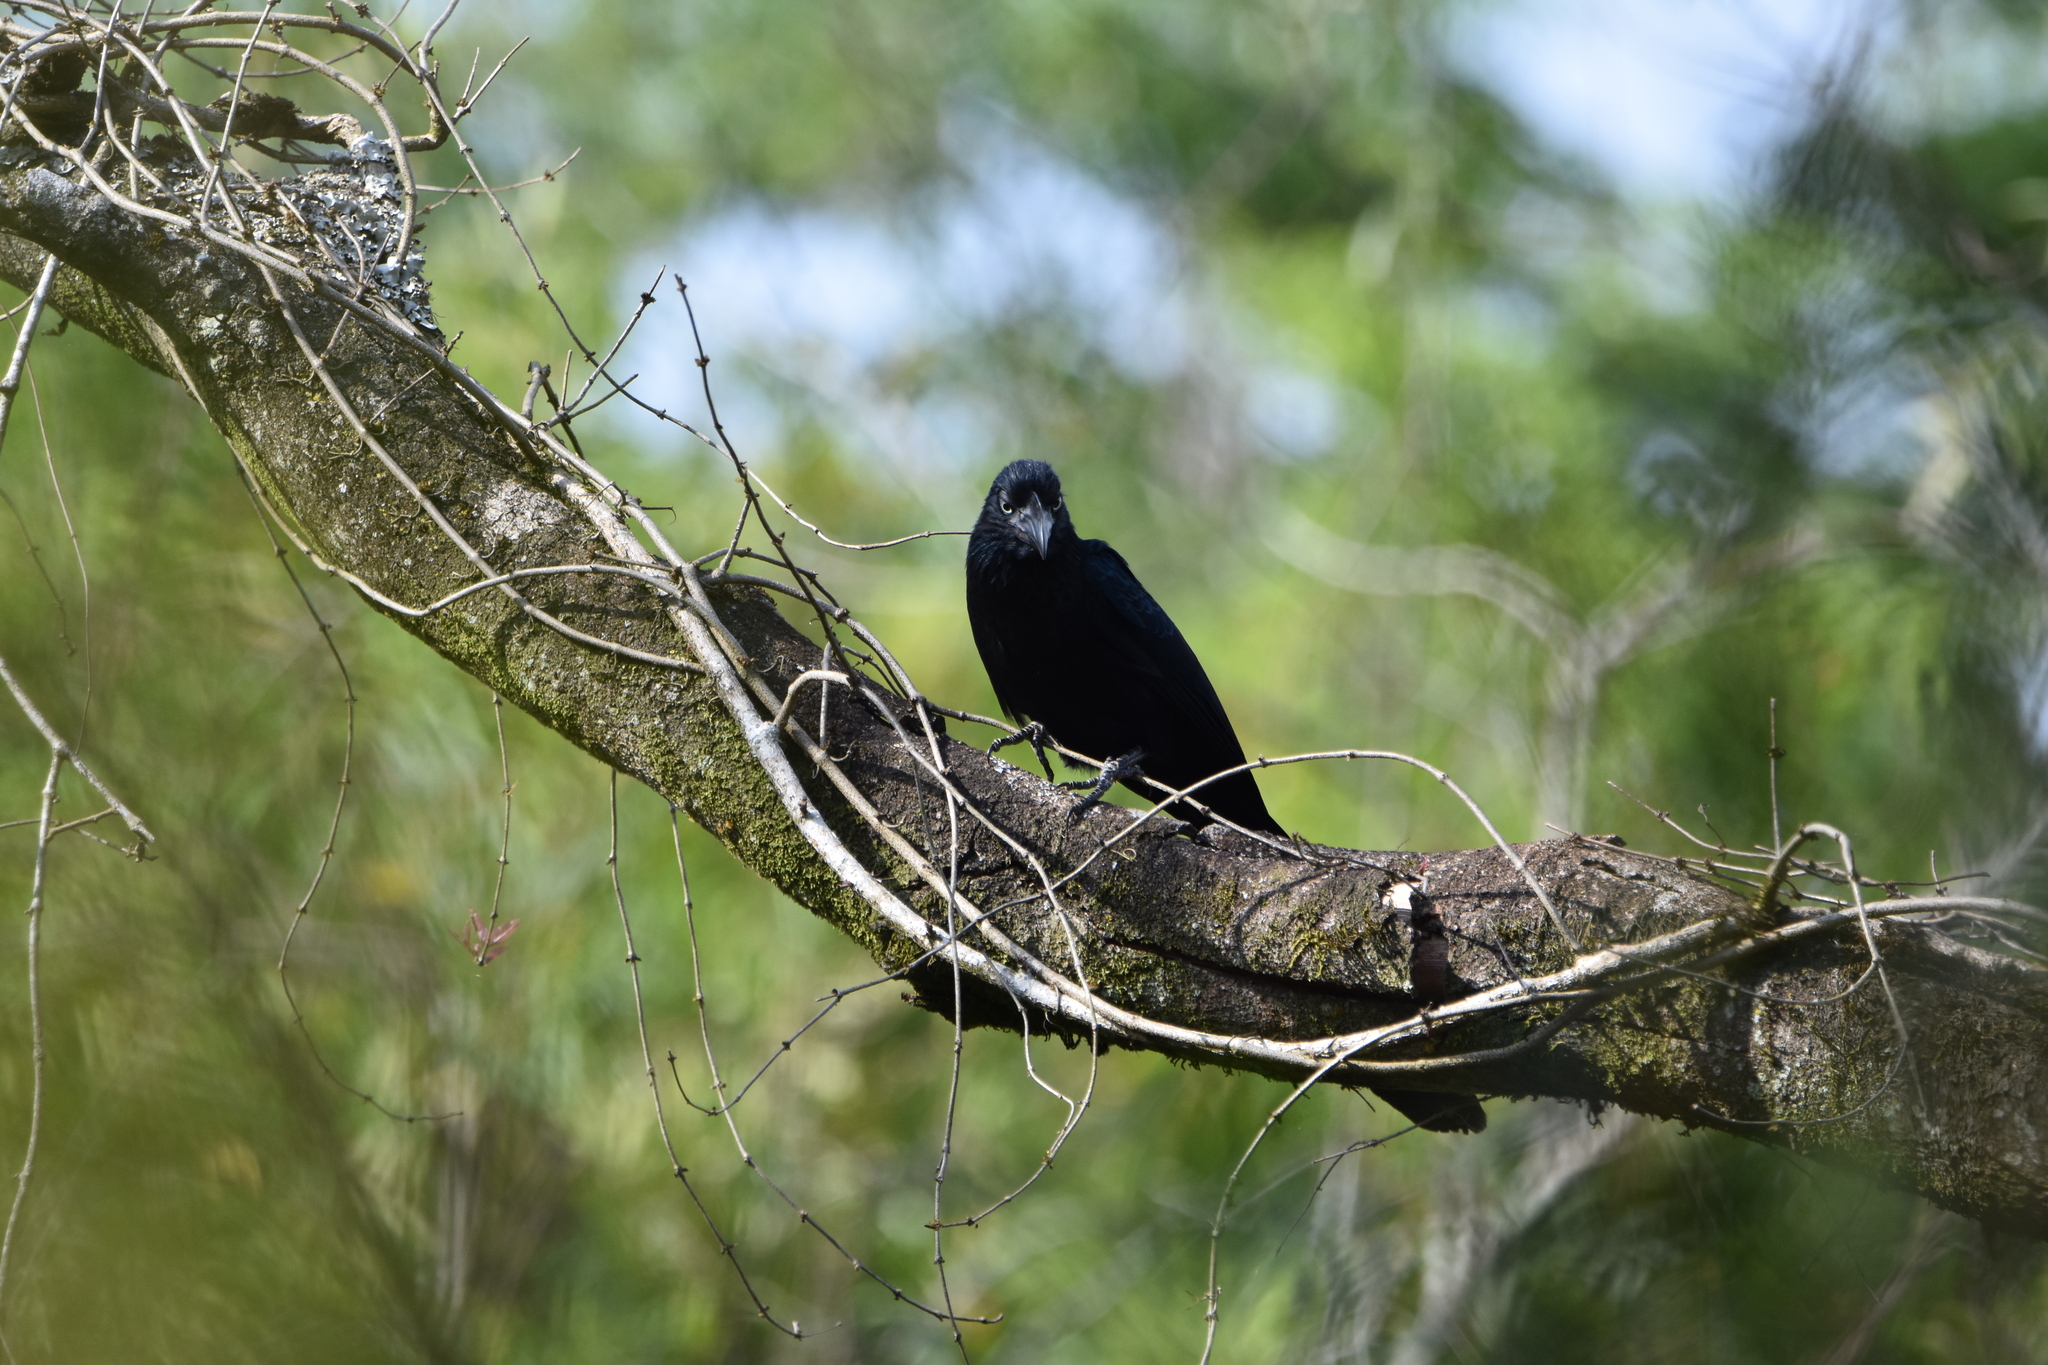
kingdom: Animalia
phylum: Chordata
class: Aves
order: Cuculiformes
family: Cuculidae
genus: Crotophaga
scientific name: Crotophaga major
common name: Greater ani
